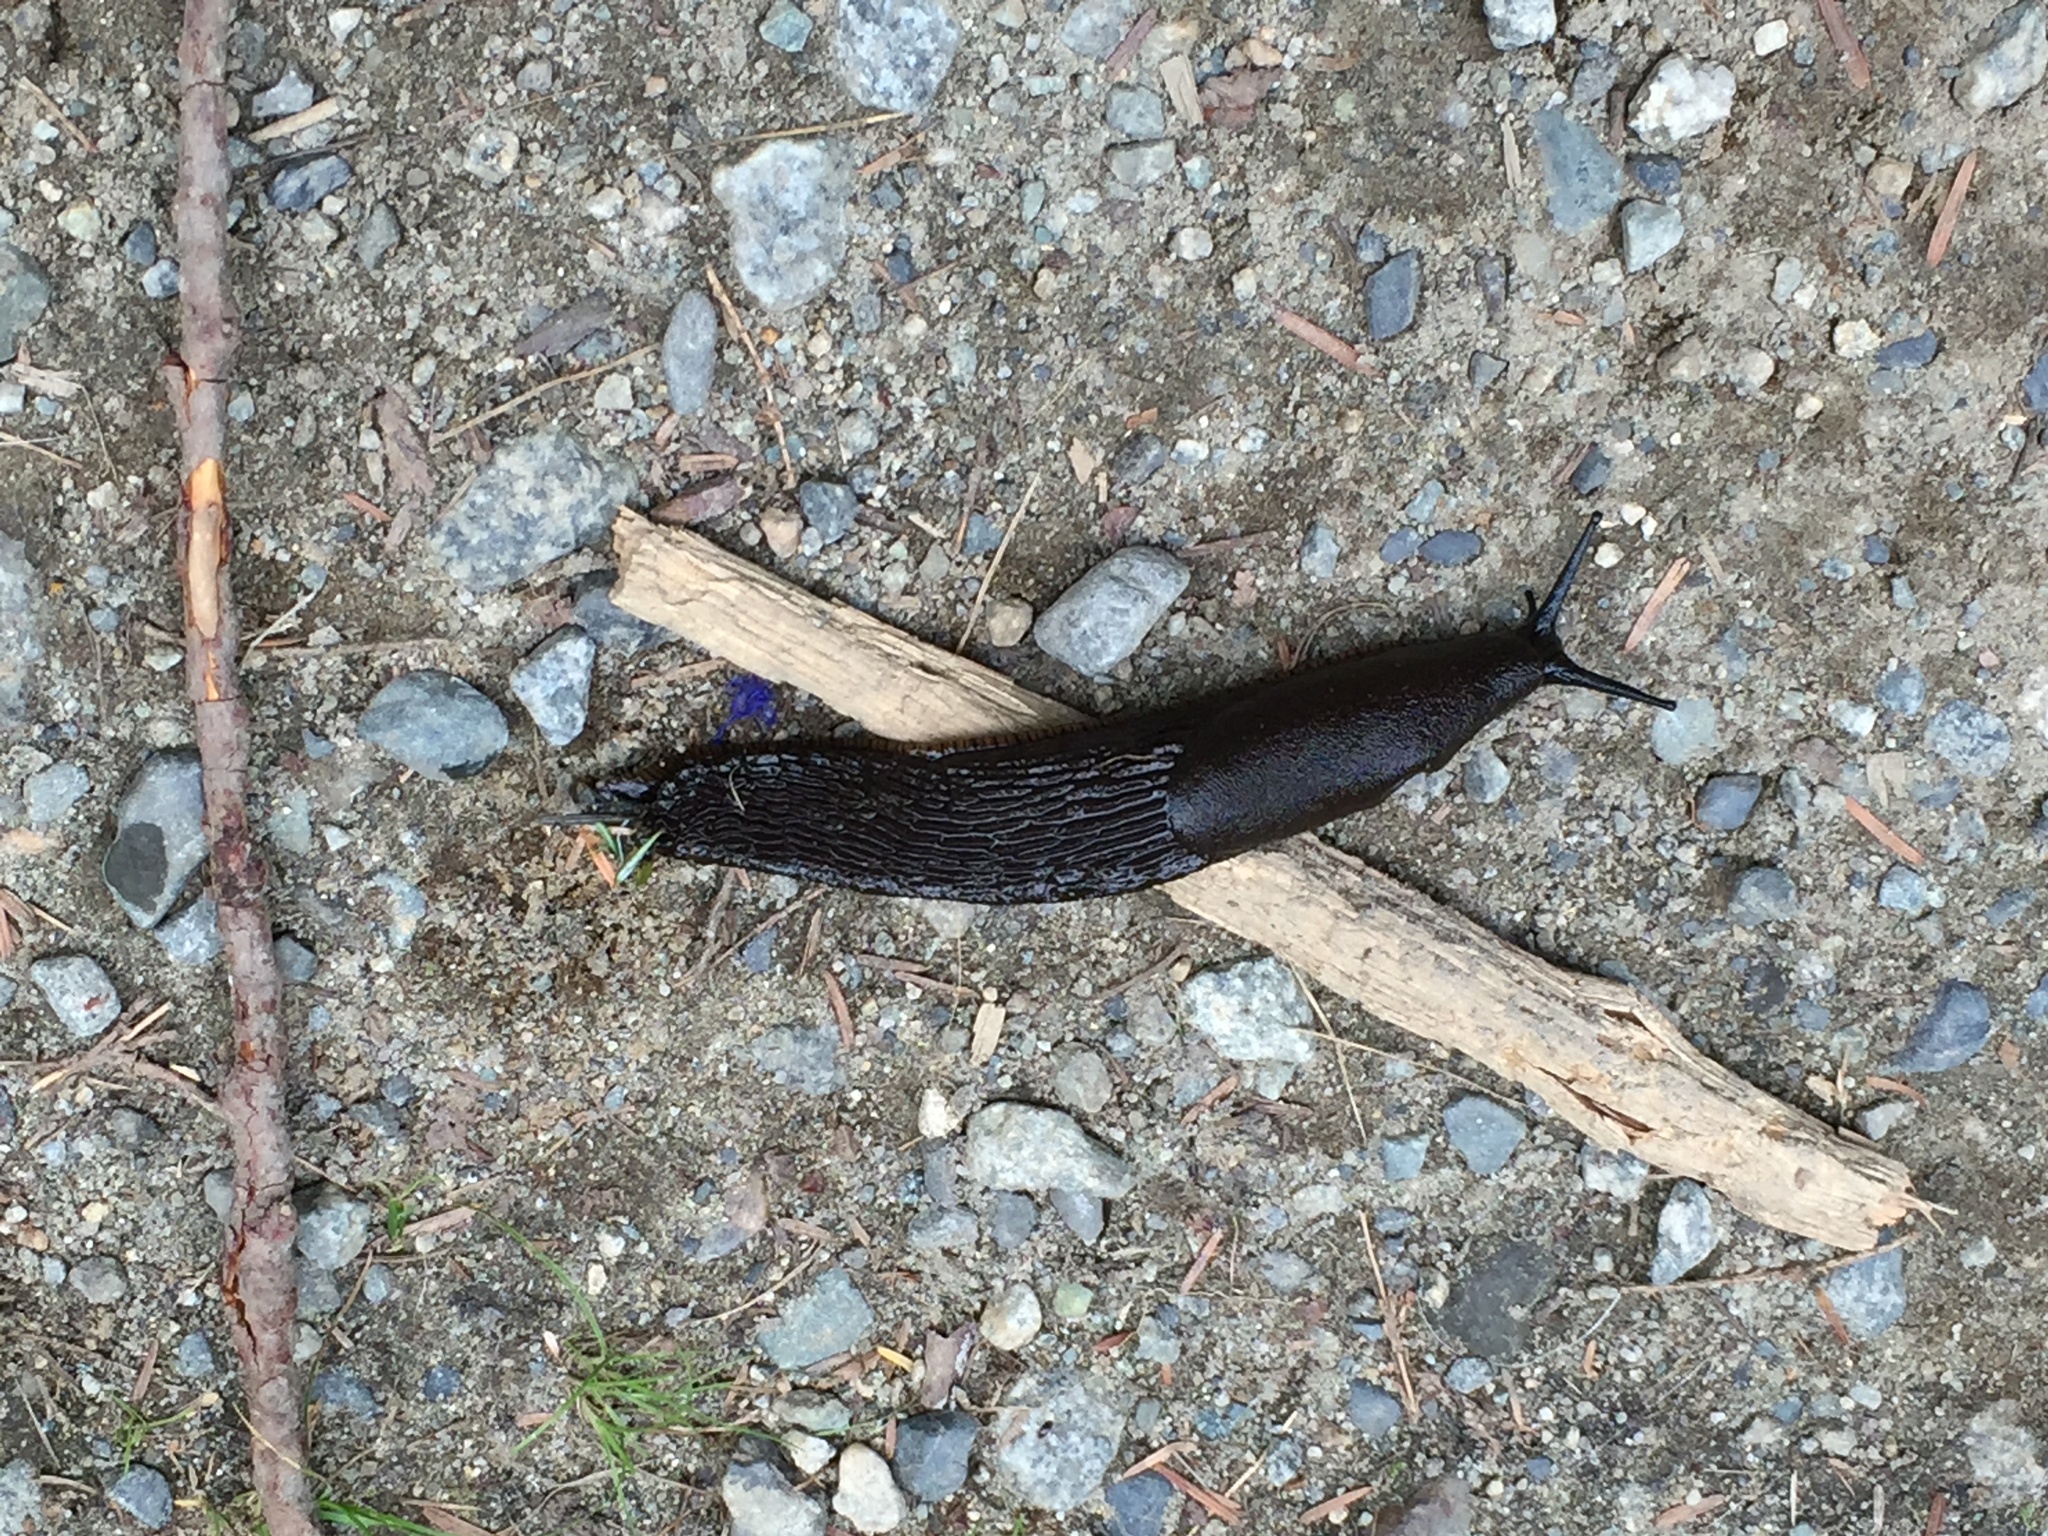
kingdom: Animalia
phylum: Mollusca
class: Gastropoda
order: Stylommatophora
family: Arionidae
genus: Arion
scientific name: Arion
